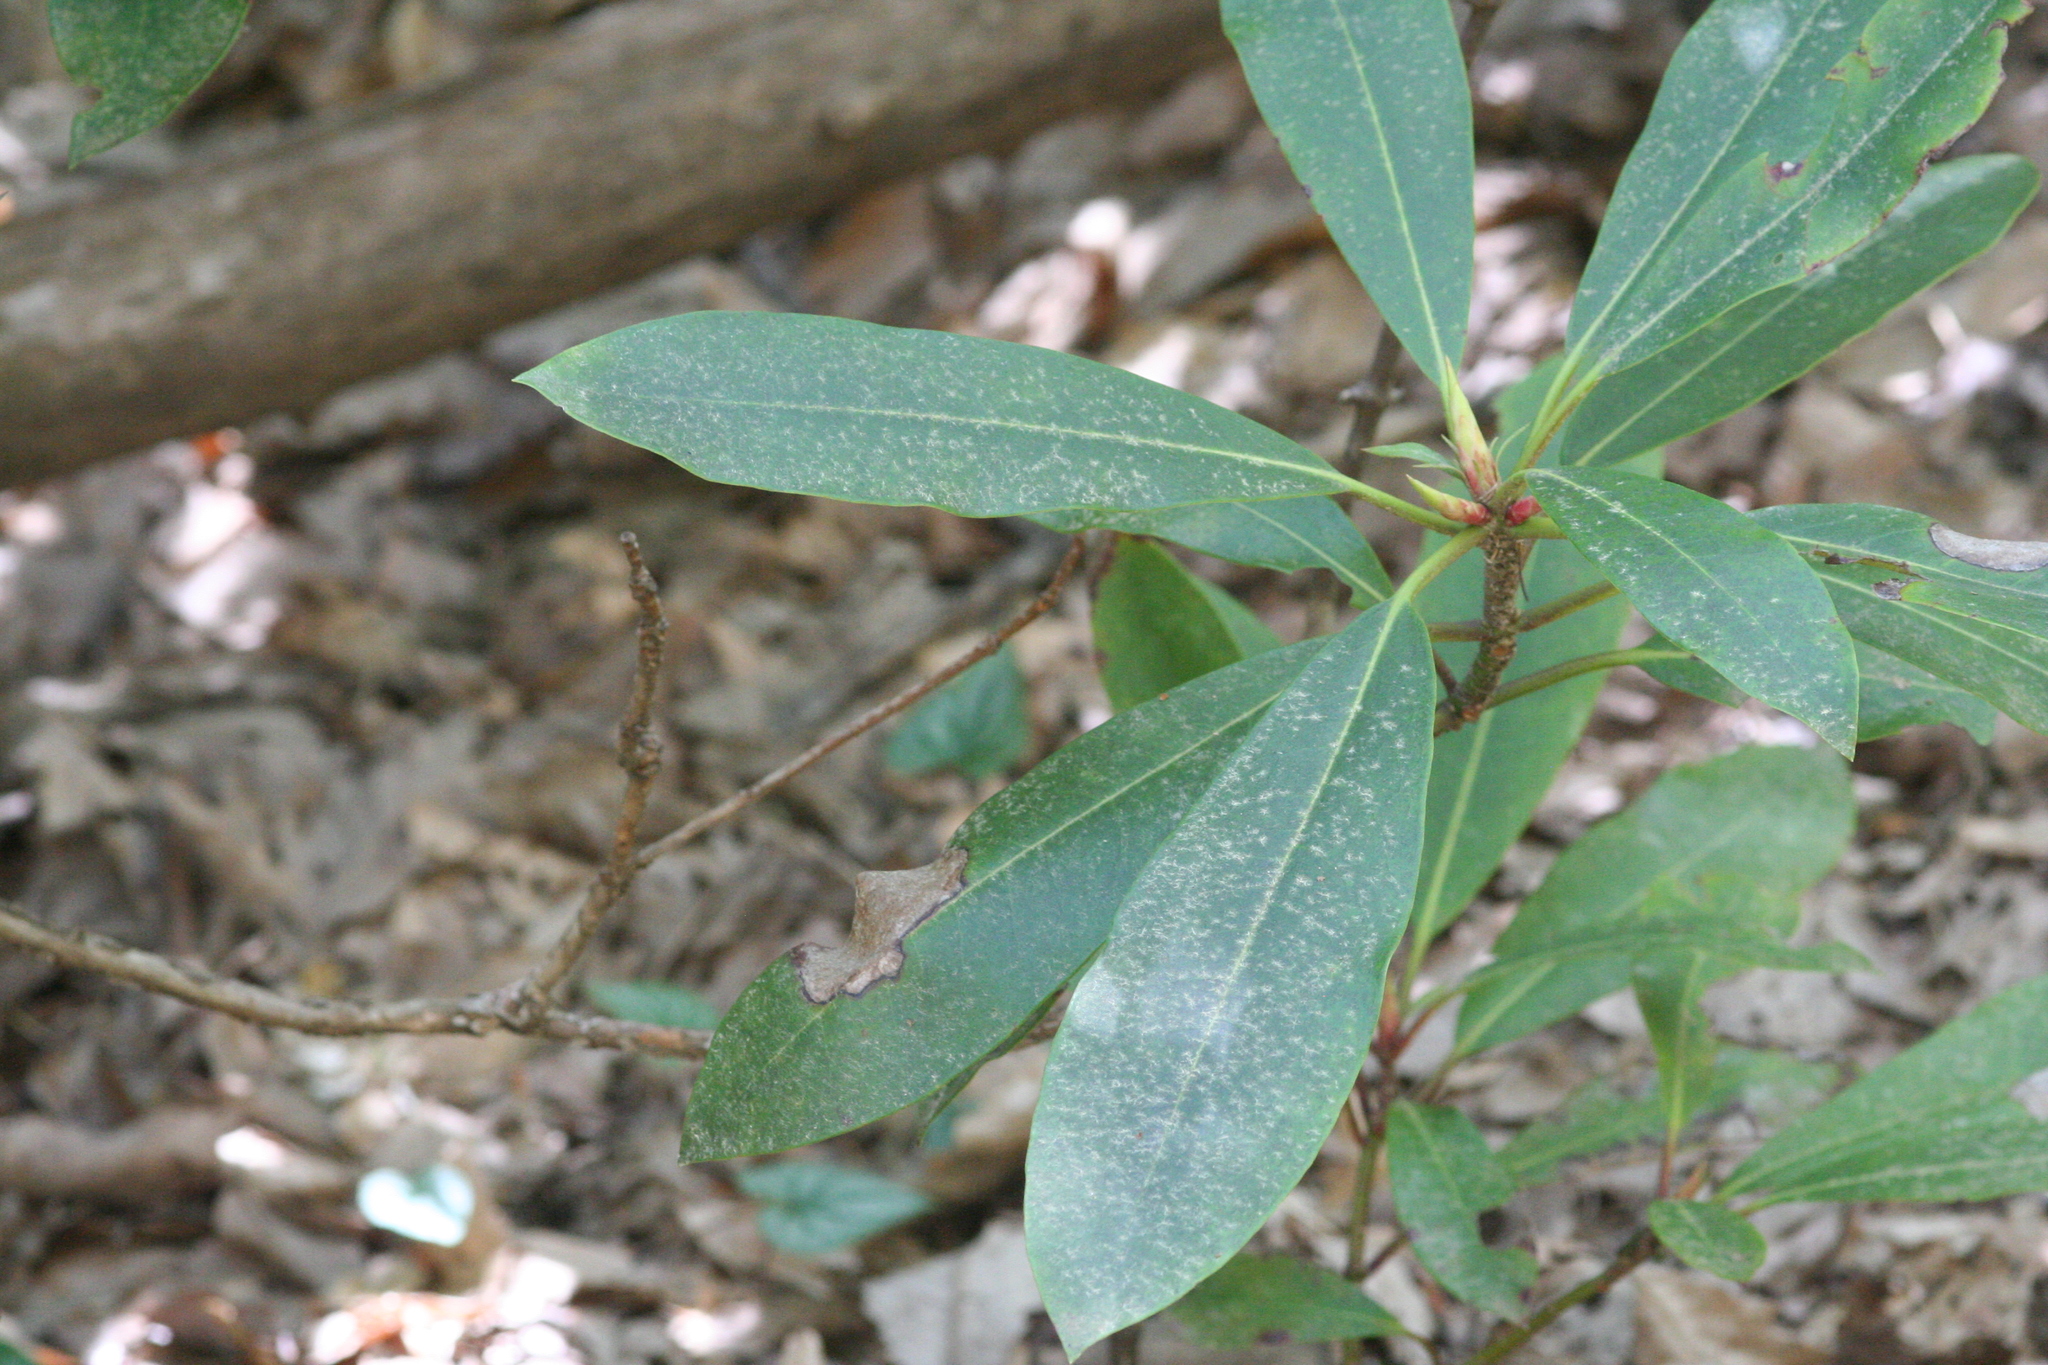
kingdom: Plantae
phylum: Tracheophyta
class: Magnoliopsida
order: Ericales
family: Ericaceae
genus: Rhododendron
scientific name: Rhododendron maximum
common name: Great rhododendron
